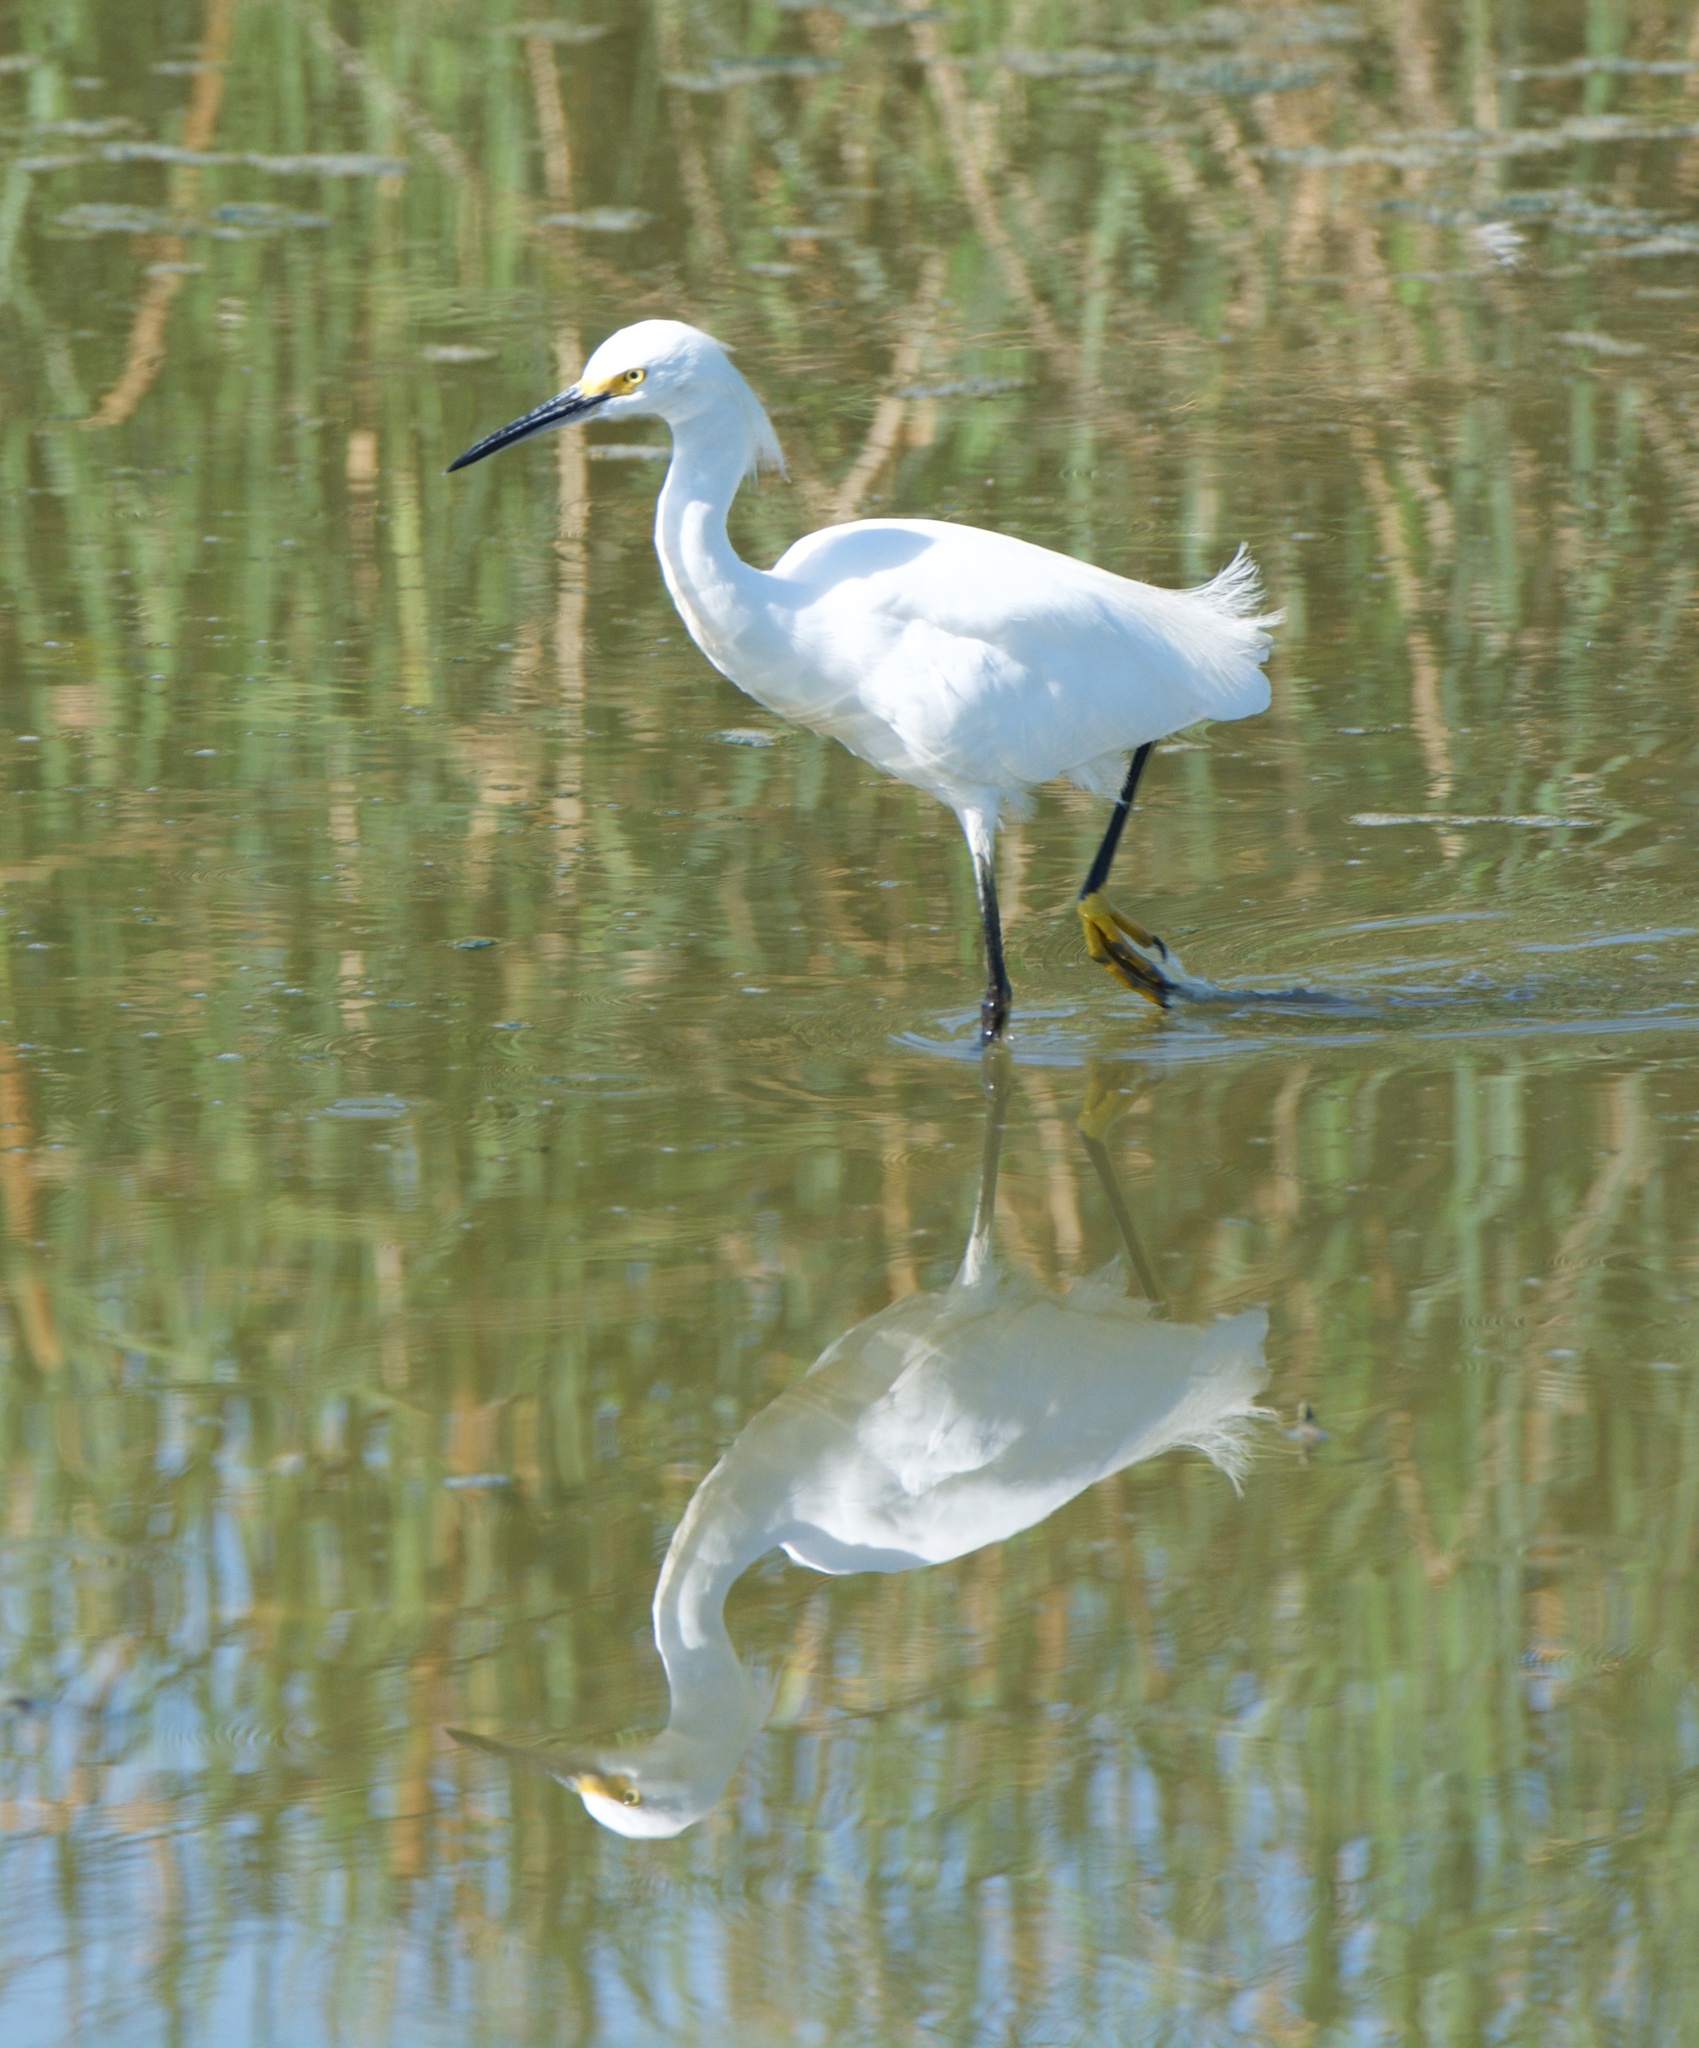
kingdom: Animalia
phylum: Chordata
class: Aves
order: Pelecaniformes
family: Ardeidae
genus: Egretta
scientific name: Egretta thula
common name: Snowy egret
